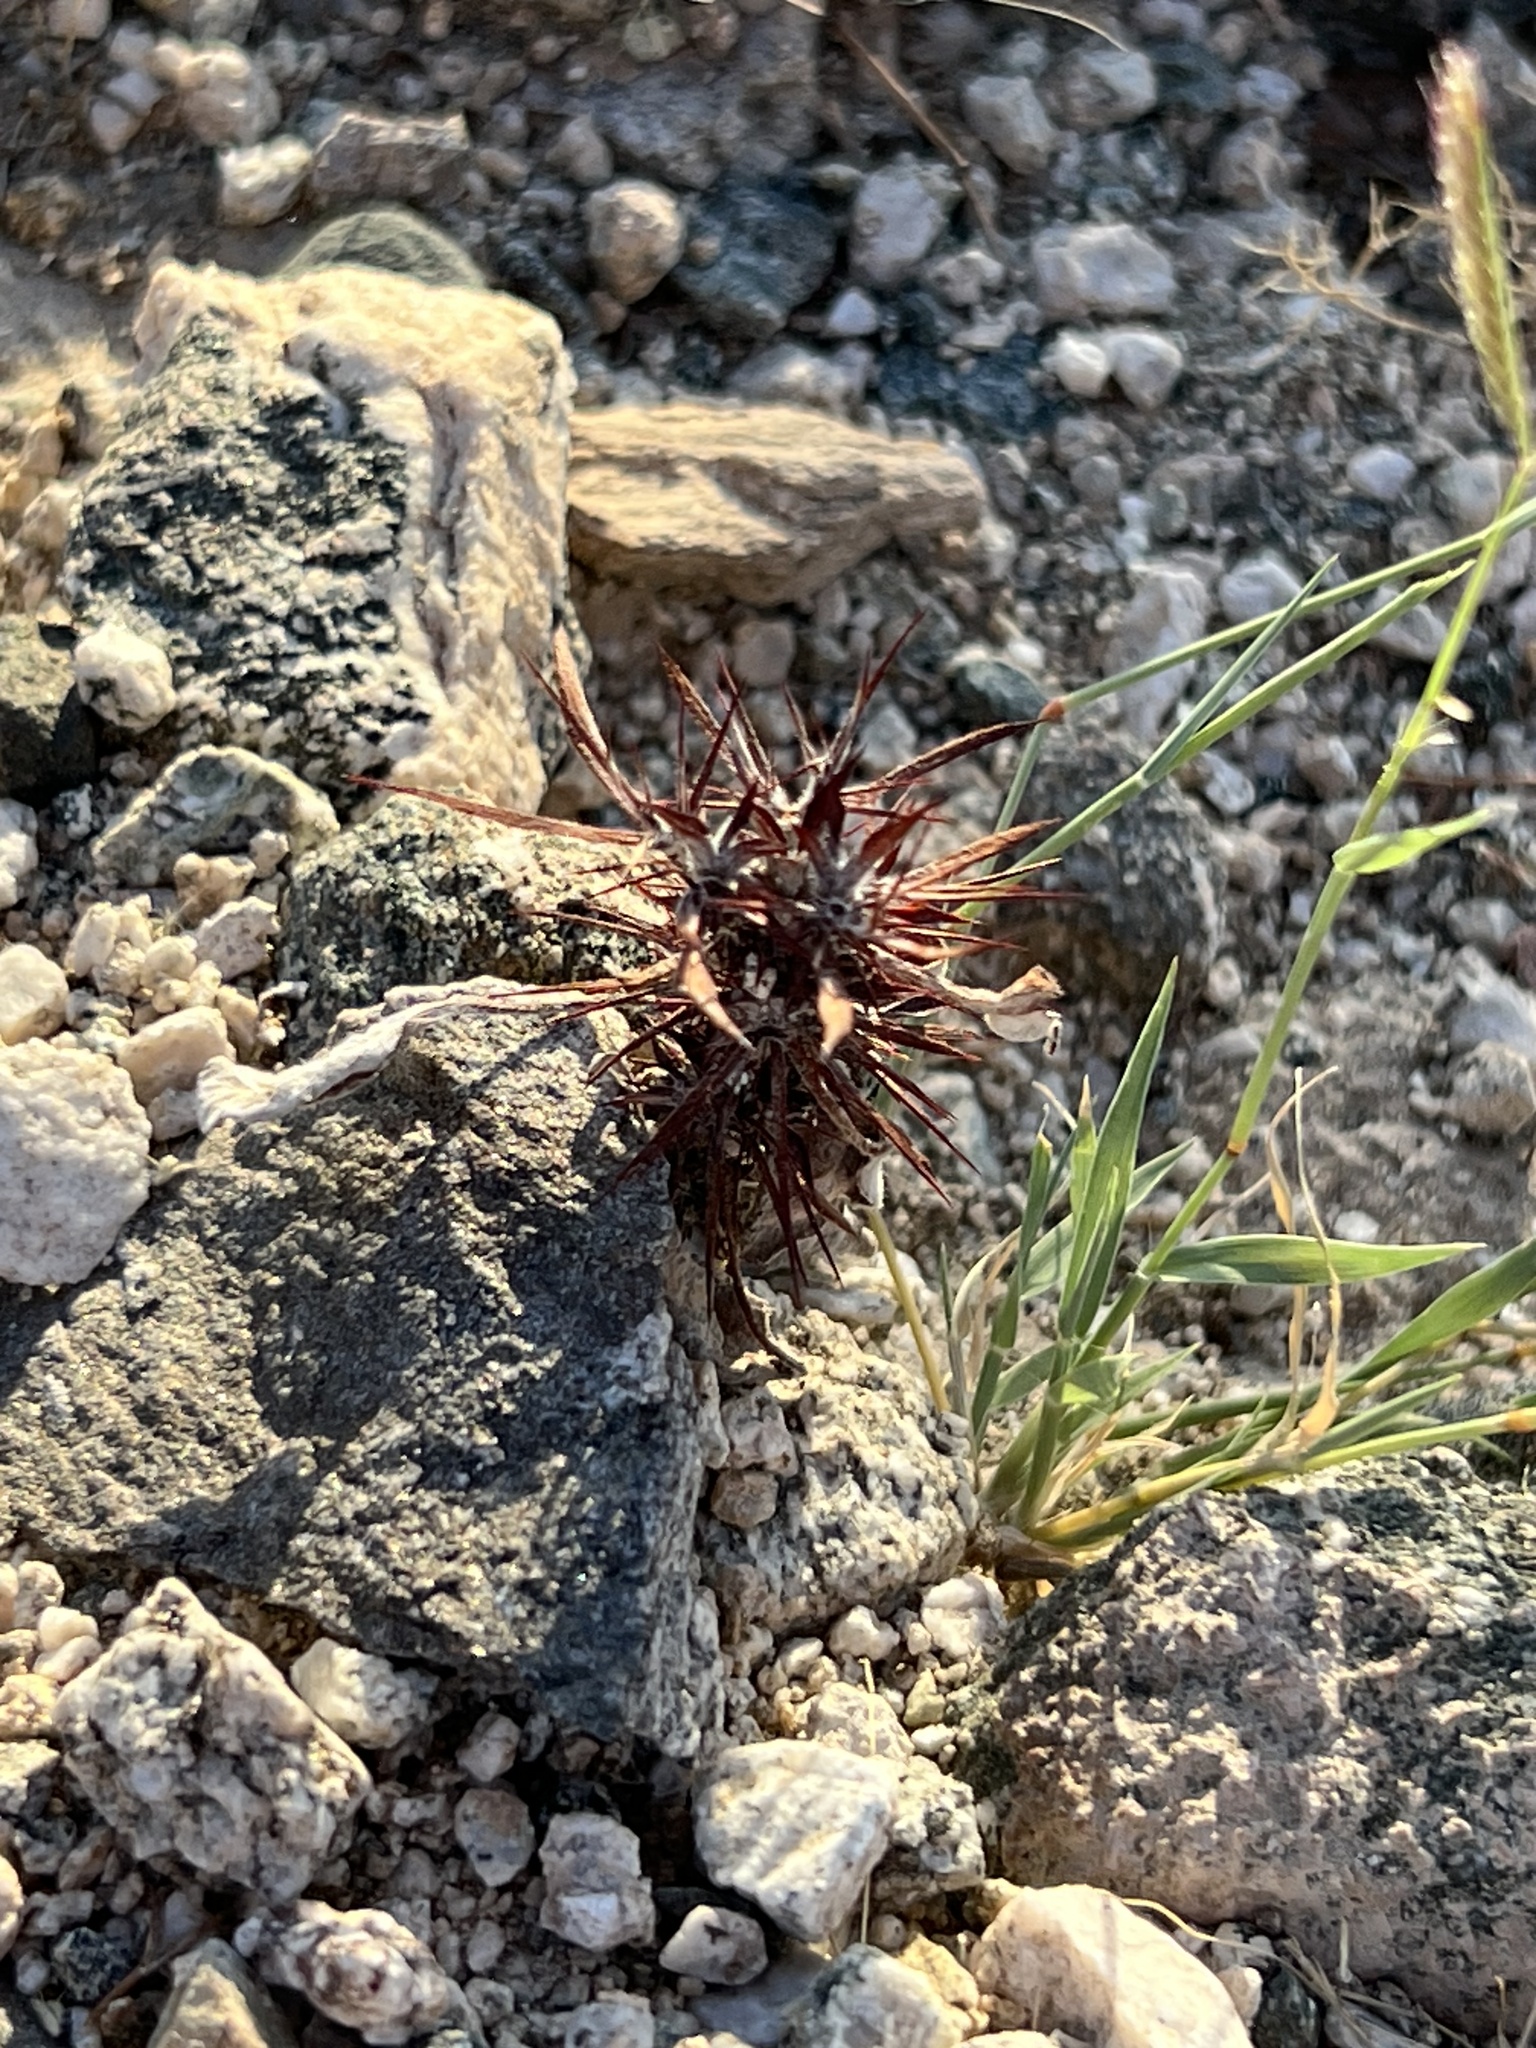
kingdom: Plantae
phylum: Tracheophyta
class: Magnoliopsida
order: Caryophyllales
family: Polygonaceae
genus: Chorizanthe
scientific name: Chorizanthe rigida
